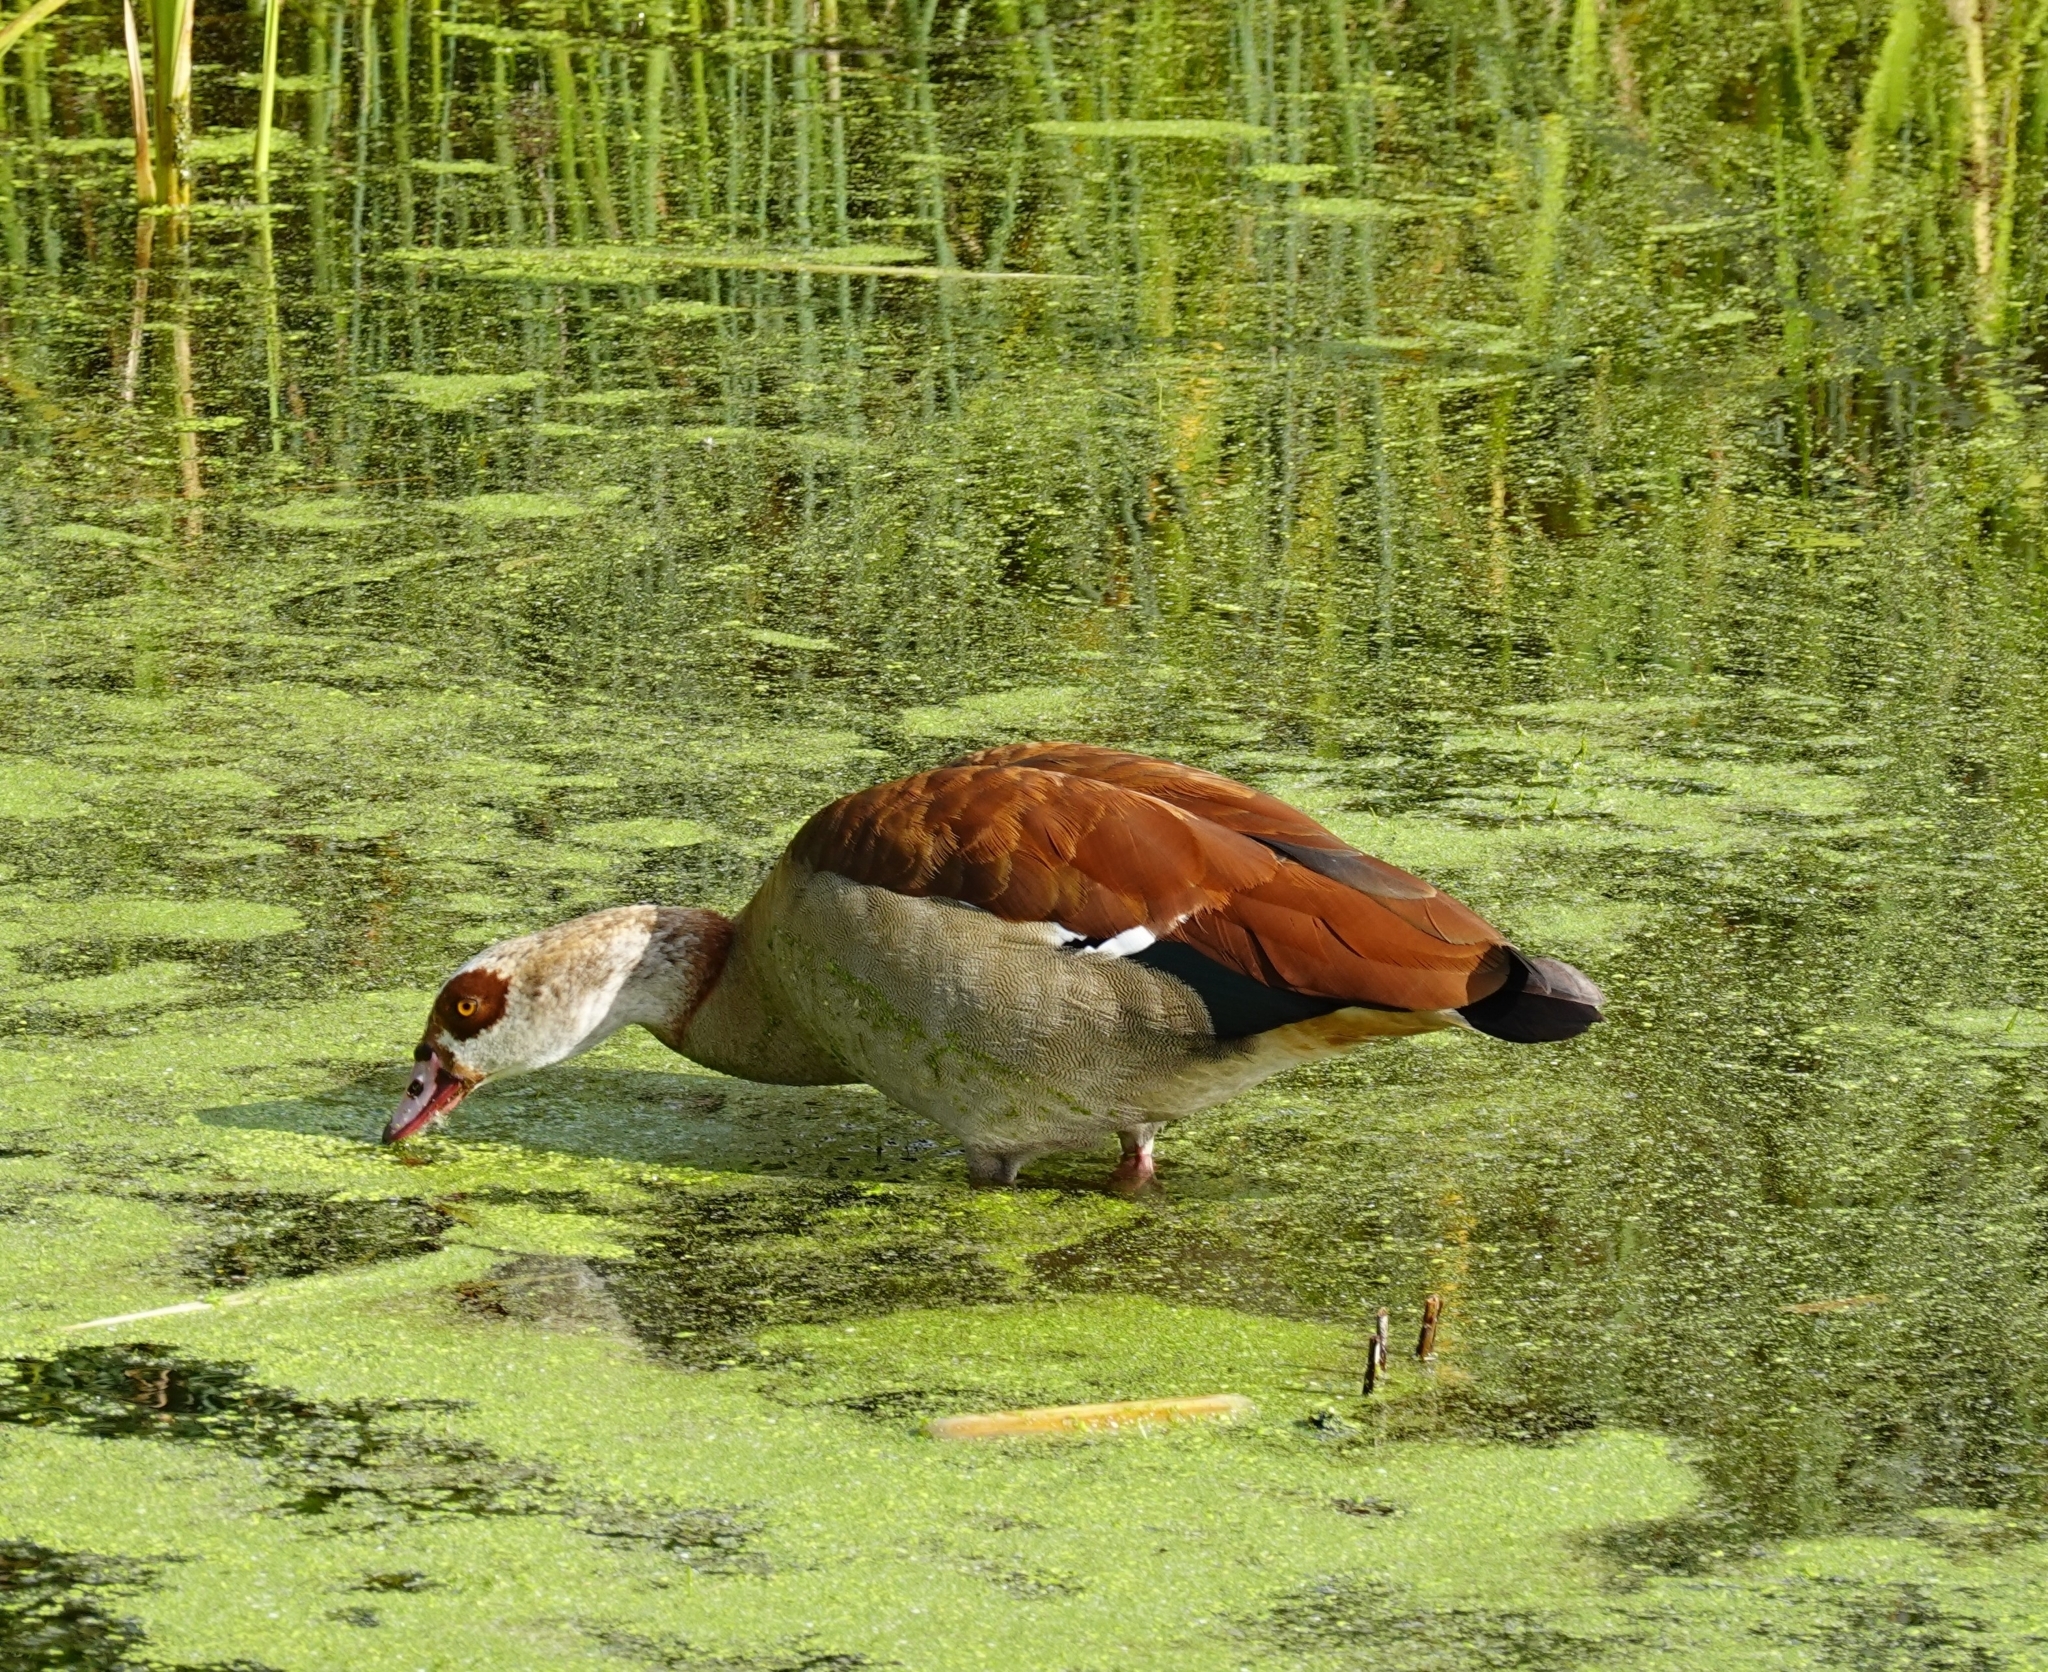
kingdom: Animalia
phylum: Chordata
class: Aves
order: Anseriformes
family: Anatidae
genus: Alopochen
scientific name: Alopochen aegyptiaca
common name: Egyptian goose
